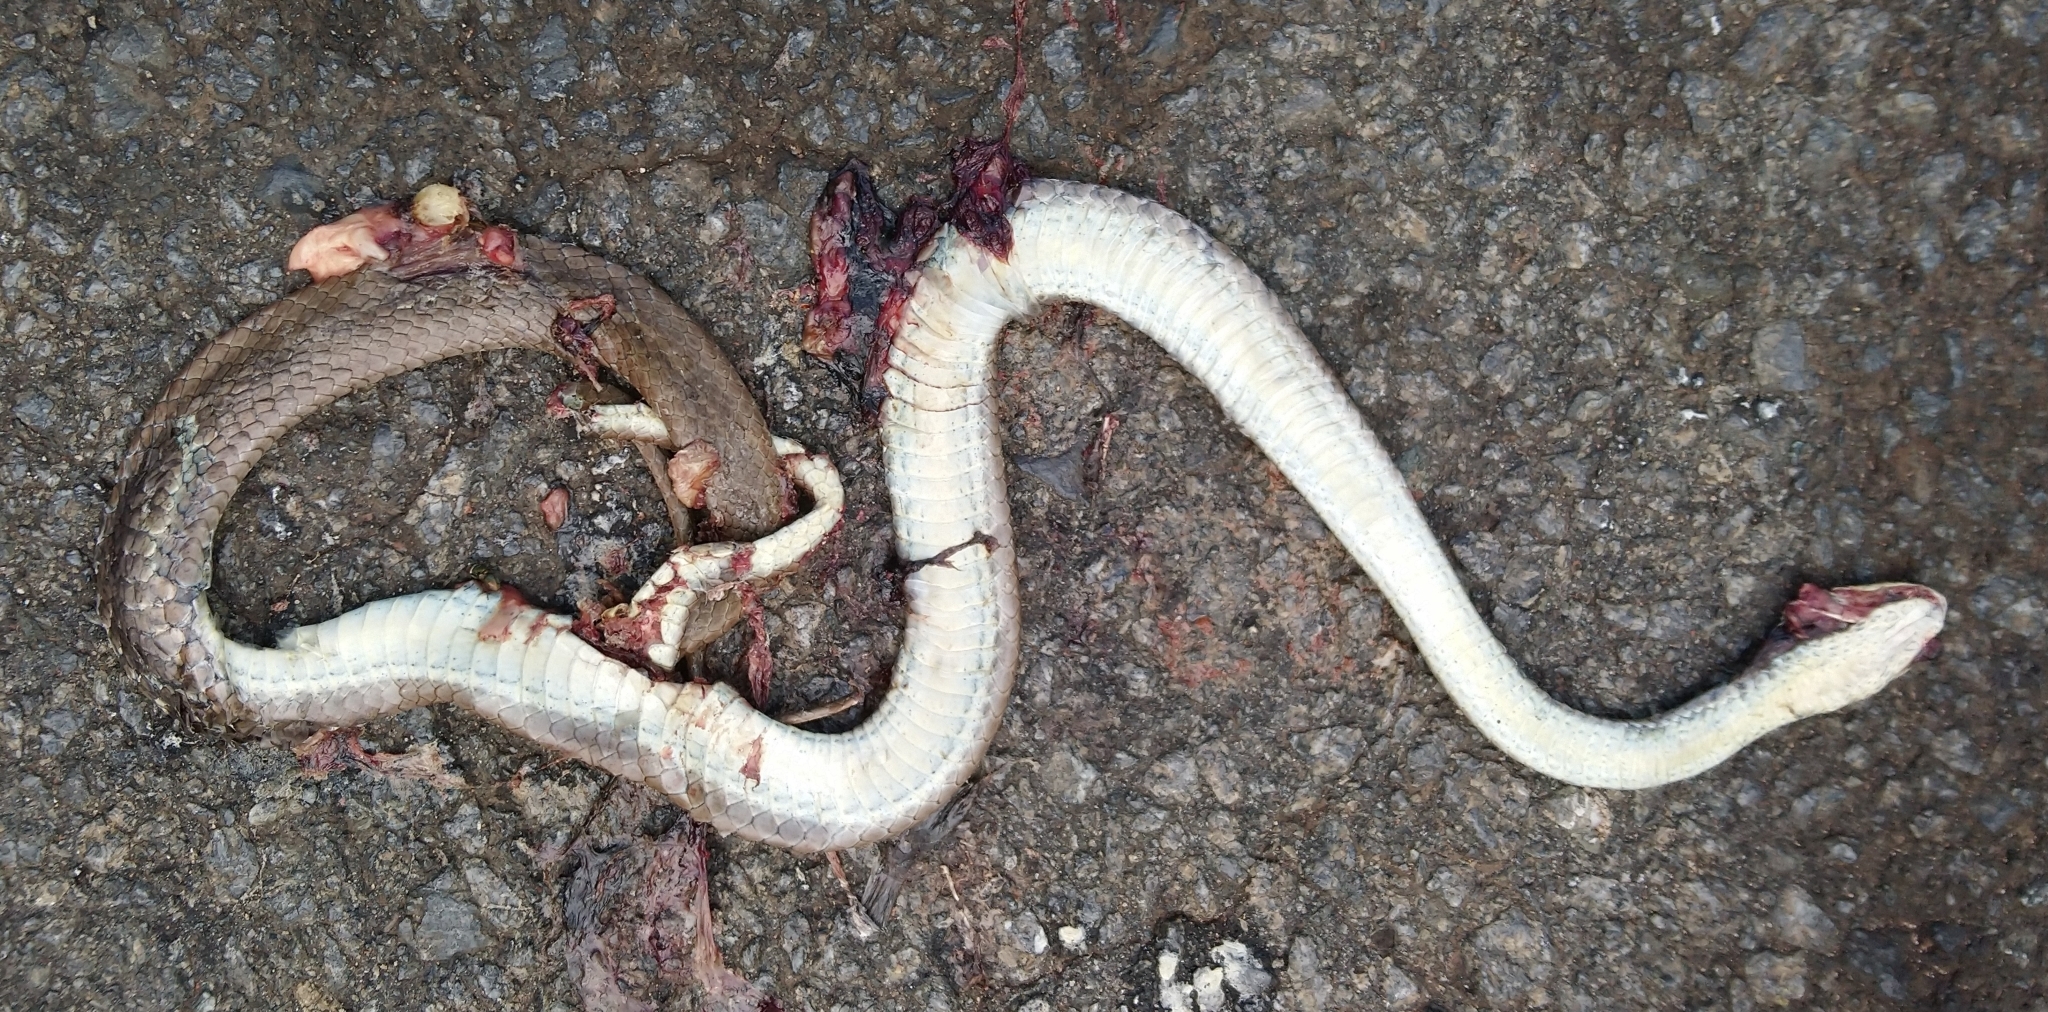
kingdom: Animalia
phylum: Chordata
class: Squamata
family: Psammophiidae
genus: Psammophis
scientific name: Psammophis brevirostris
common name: Short-snouted grass snake
